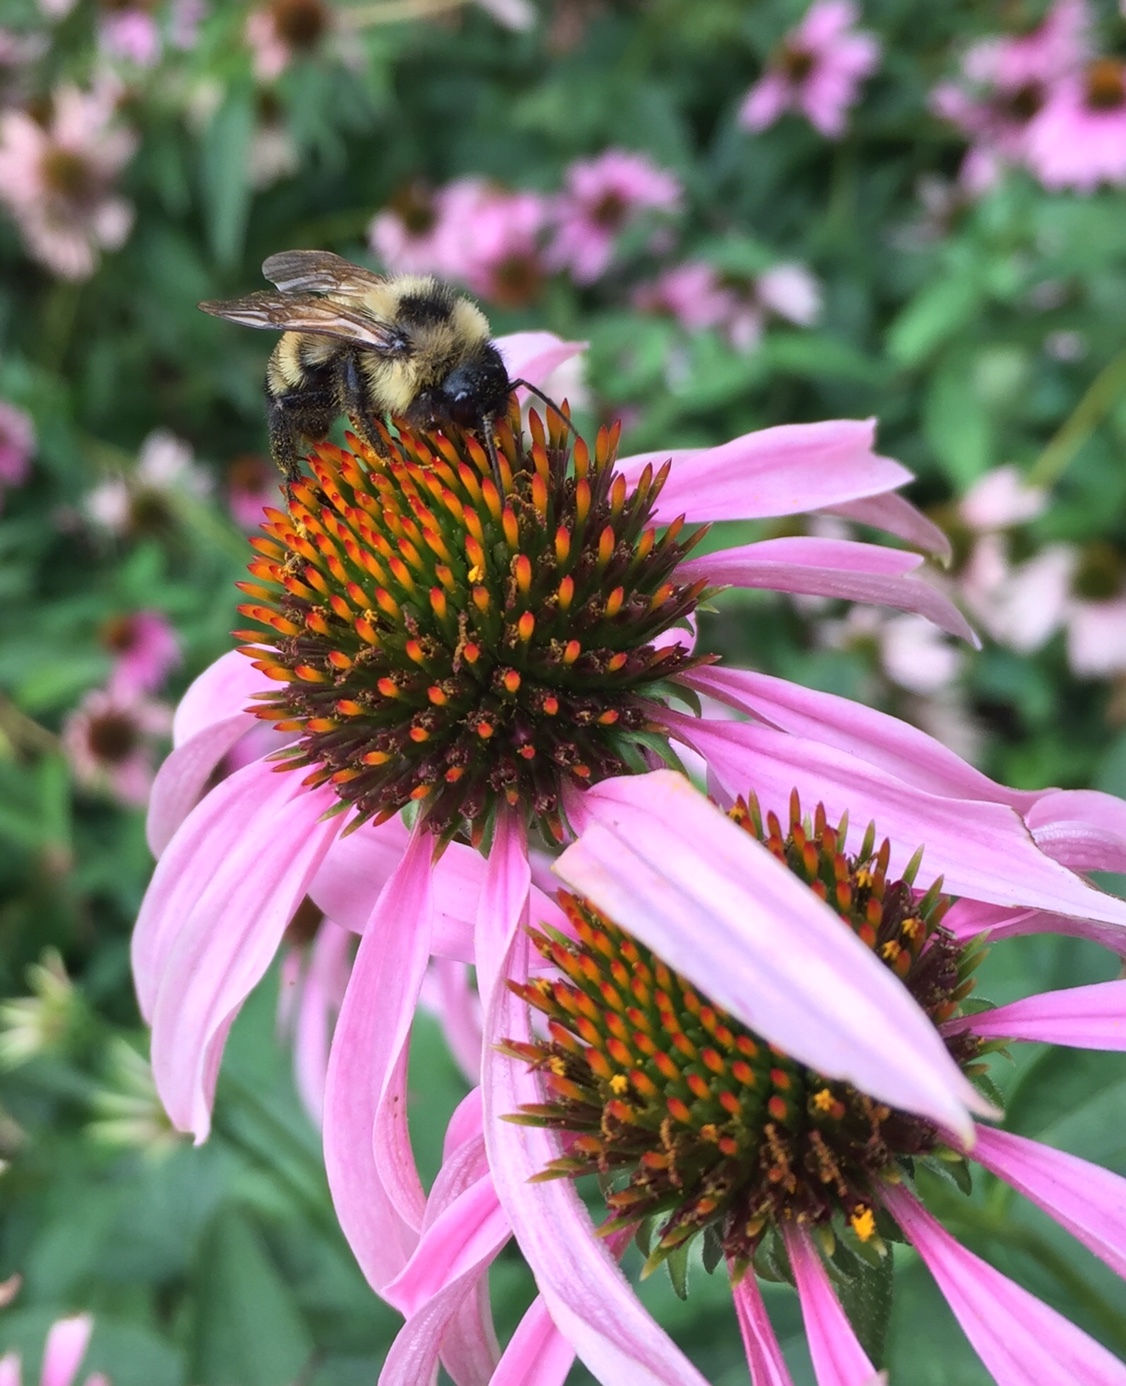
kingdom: Animalia
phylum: Arthropoda
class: Insecta
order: Hymenoptera
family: Apidae
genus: Bombus
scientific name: Bombus citrinus
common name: Lemon cuckoo bumble bee
